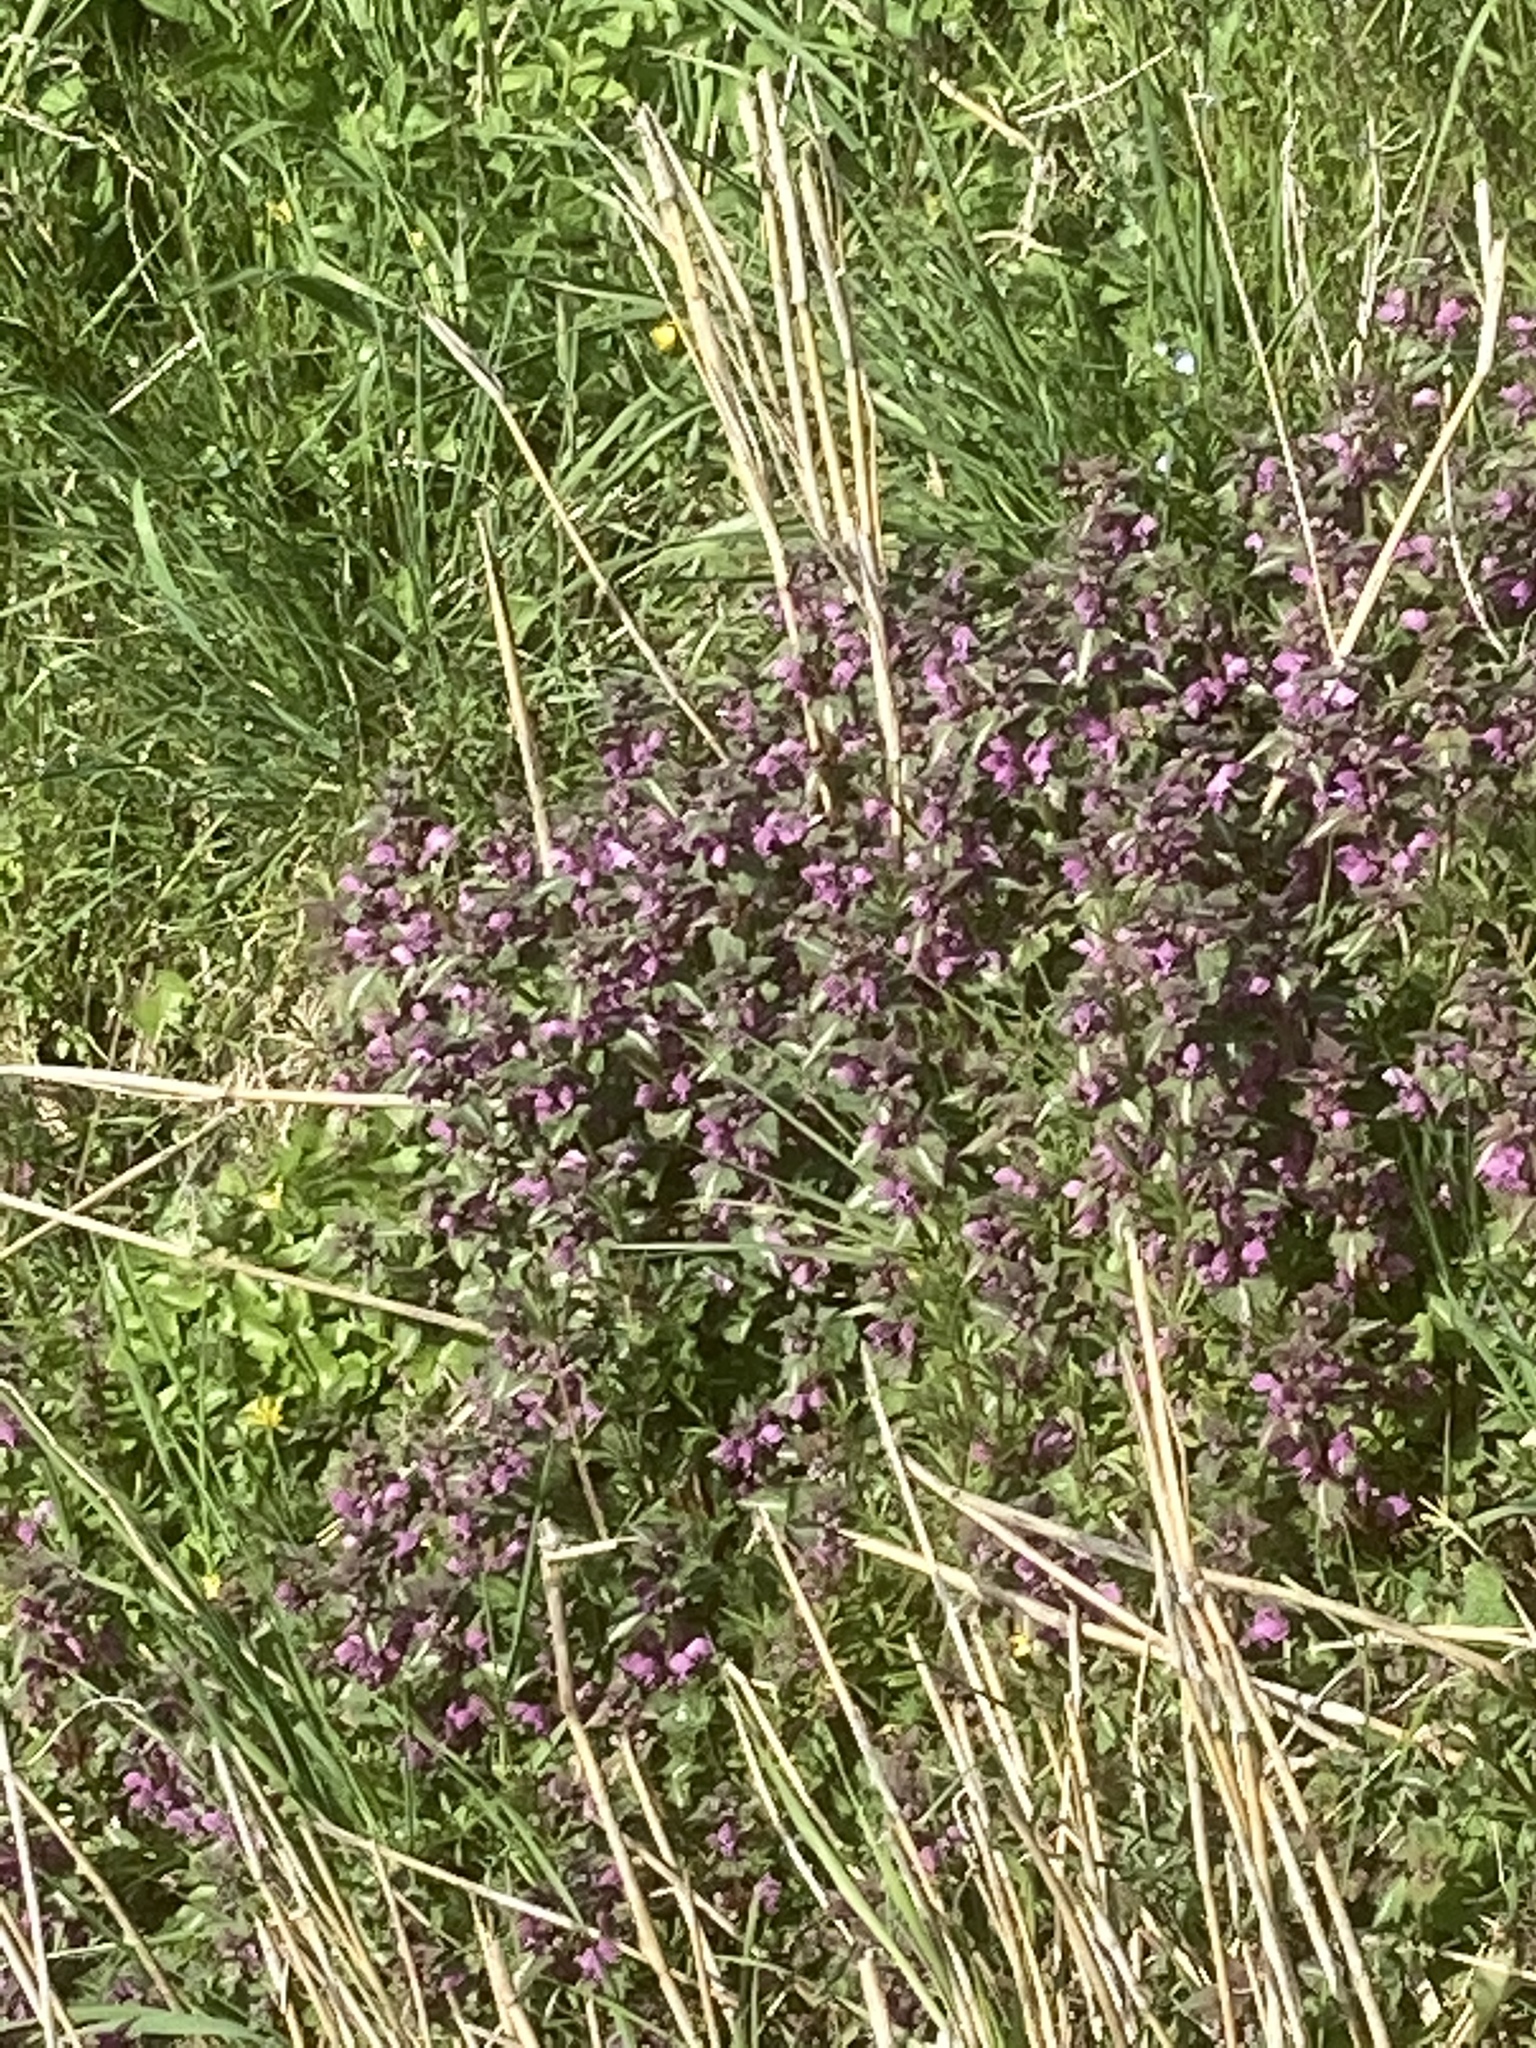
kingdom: Plantae
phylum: Tracheophyta
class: Magnoliopsida
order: Lamiales
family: Lamiaceae
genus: Lamium
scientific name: Lamium maculatum
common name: Spotted dead-nettle
